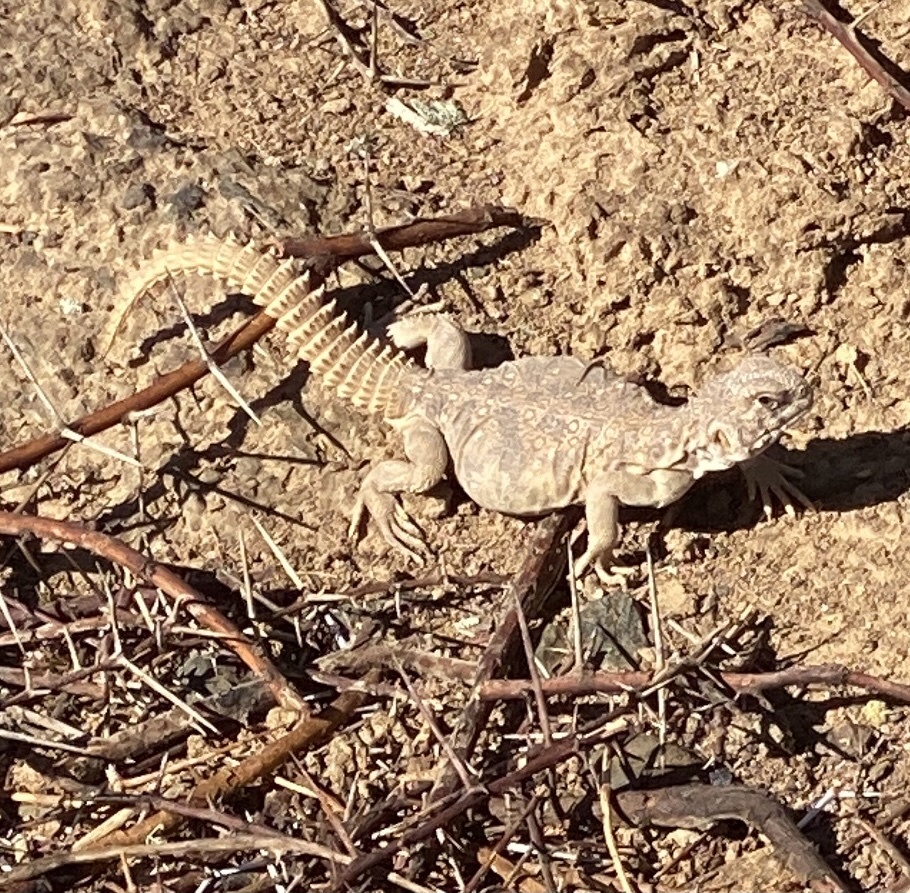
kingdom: Animalia
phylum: Chordata
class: Squamata
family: Agamidae
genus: Uromastyx
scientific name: Uromastyx aegyptia
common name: Egyptian mastigure
